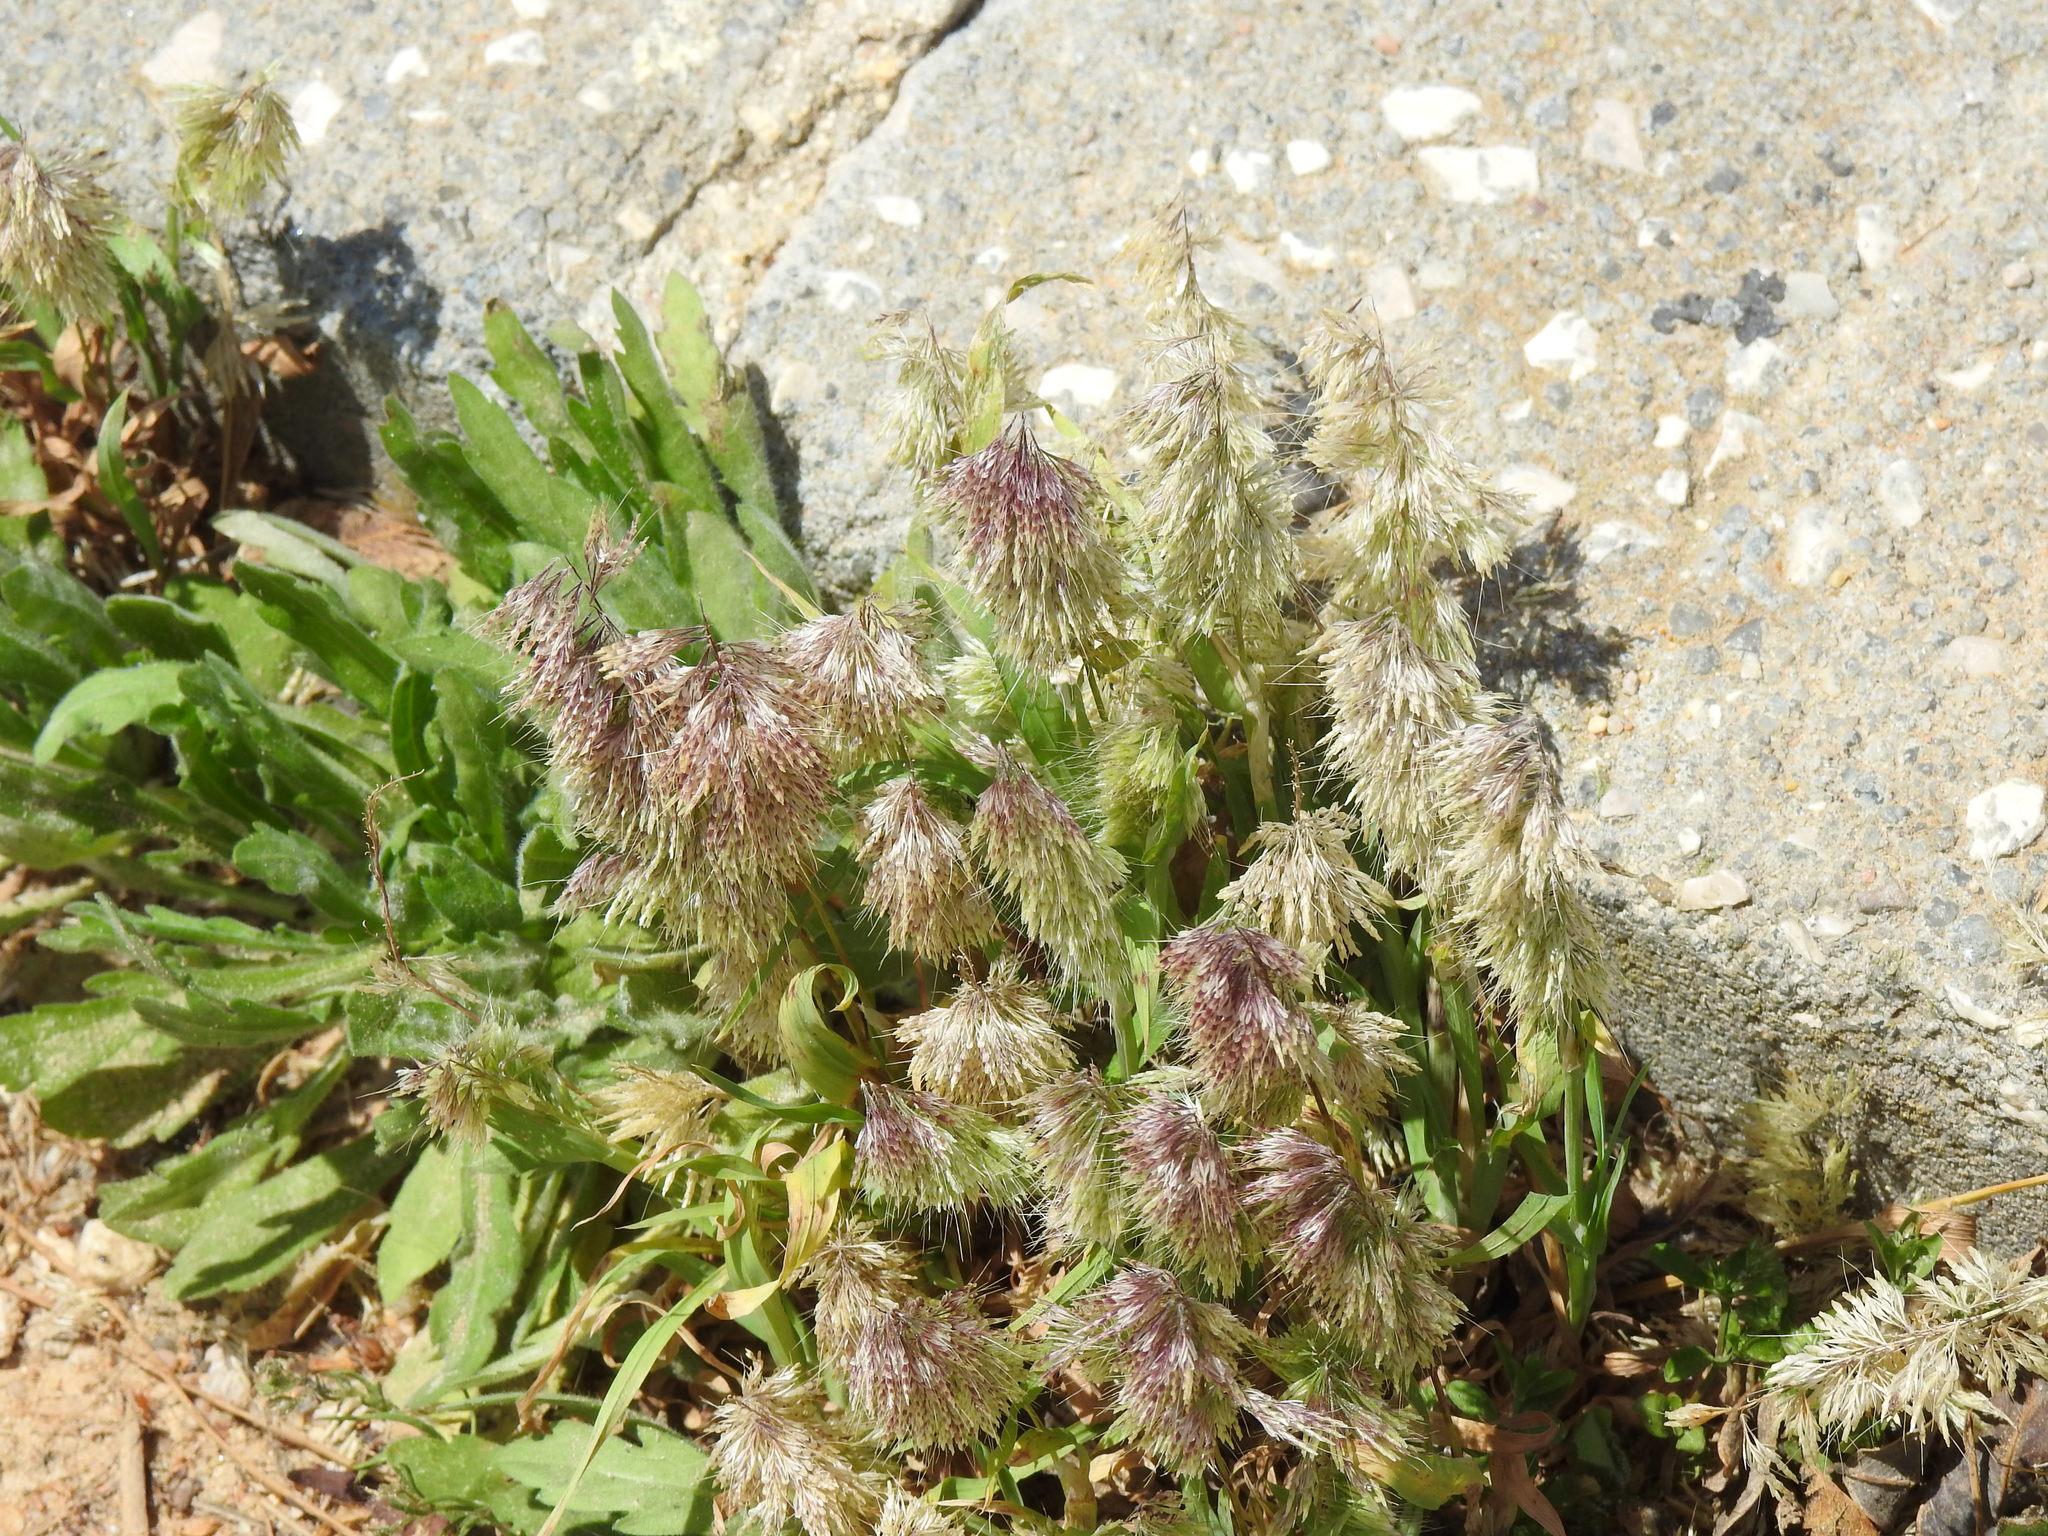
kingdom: Plantae
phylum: Tracheophyta
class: Liliopsida
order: Poales
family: Poaceae
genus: Lamarckia
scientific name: Lamarckia aurea
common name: Golden dog's-tail
